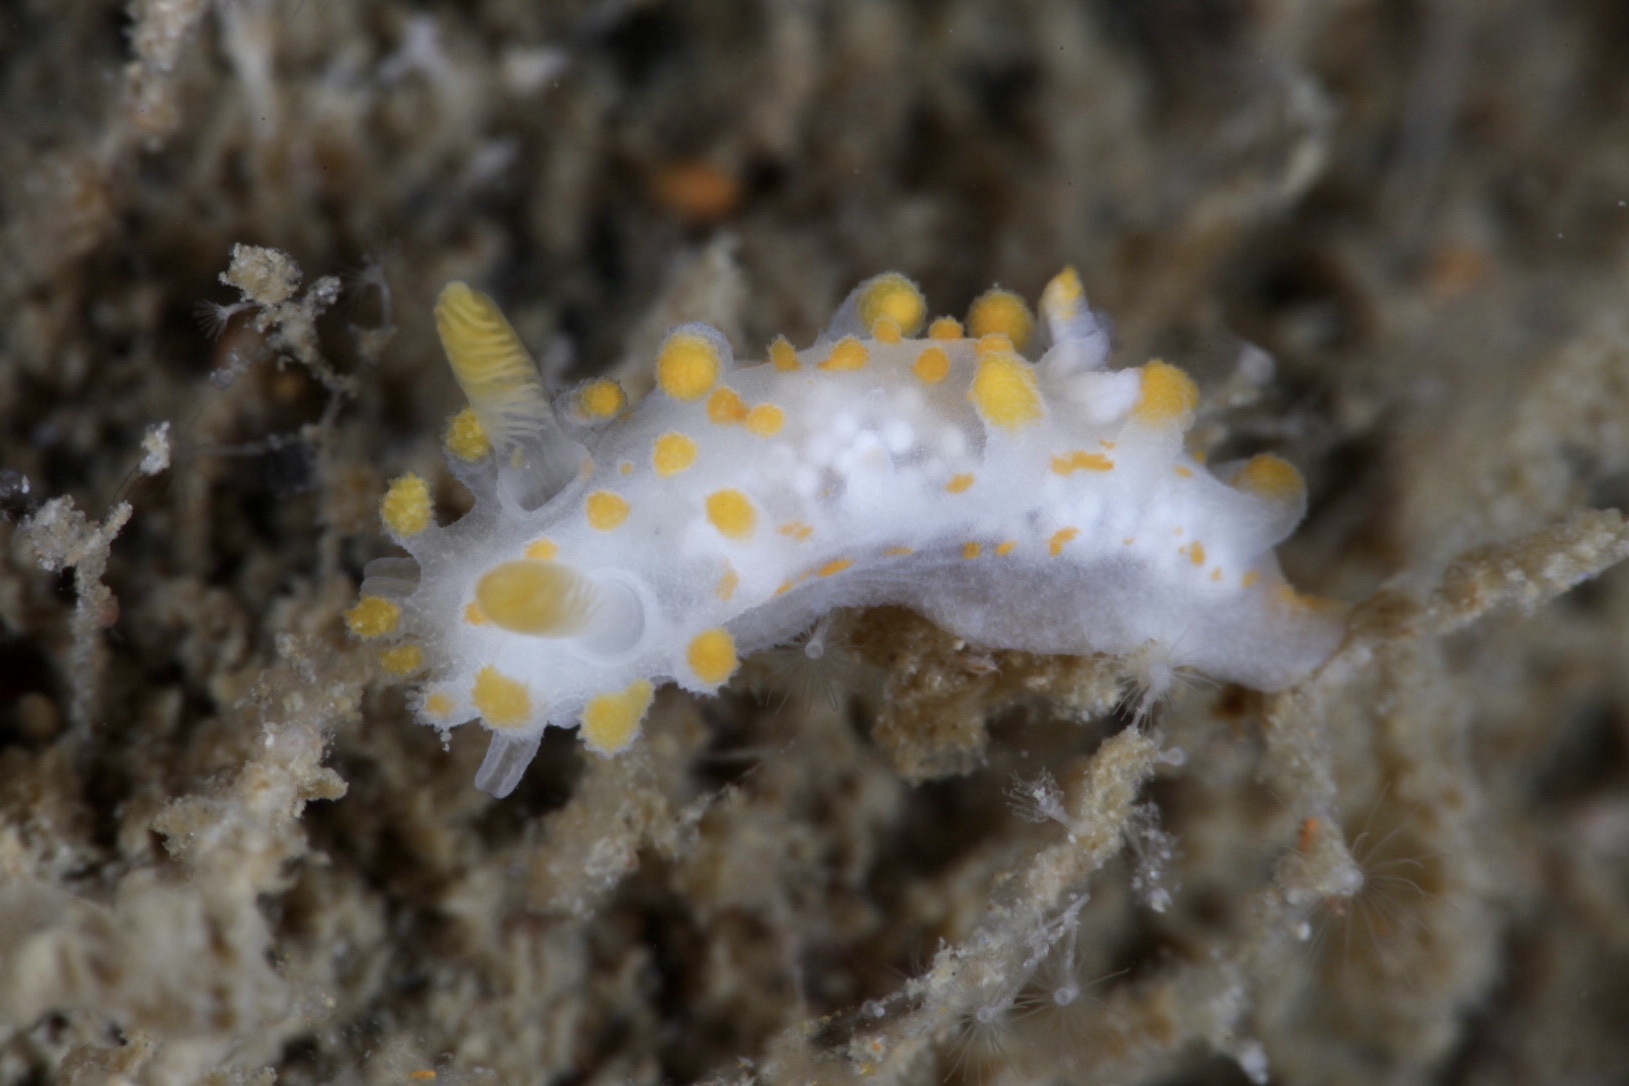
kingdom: Animalia
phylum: Mollusca
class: Gastropoda
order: Nudibranchia
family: Polyceridae
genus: Limacia
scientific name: Limacia clavigera
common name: Orange-clubbed sea slug
